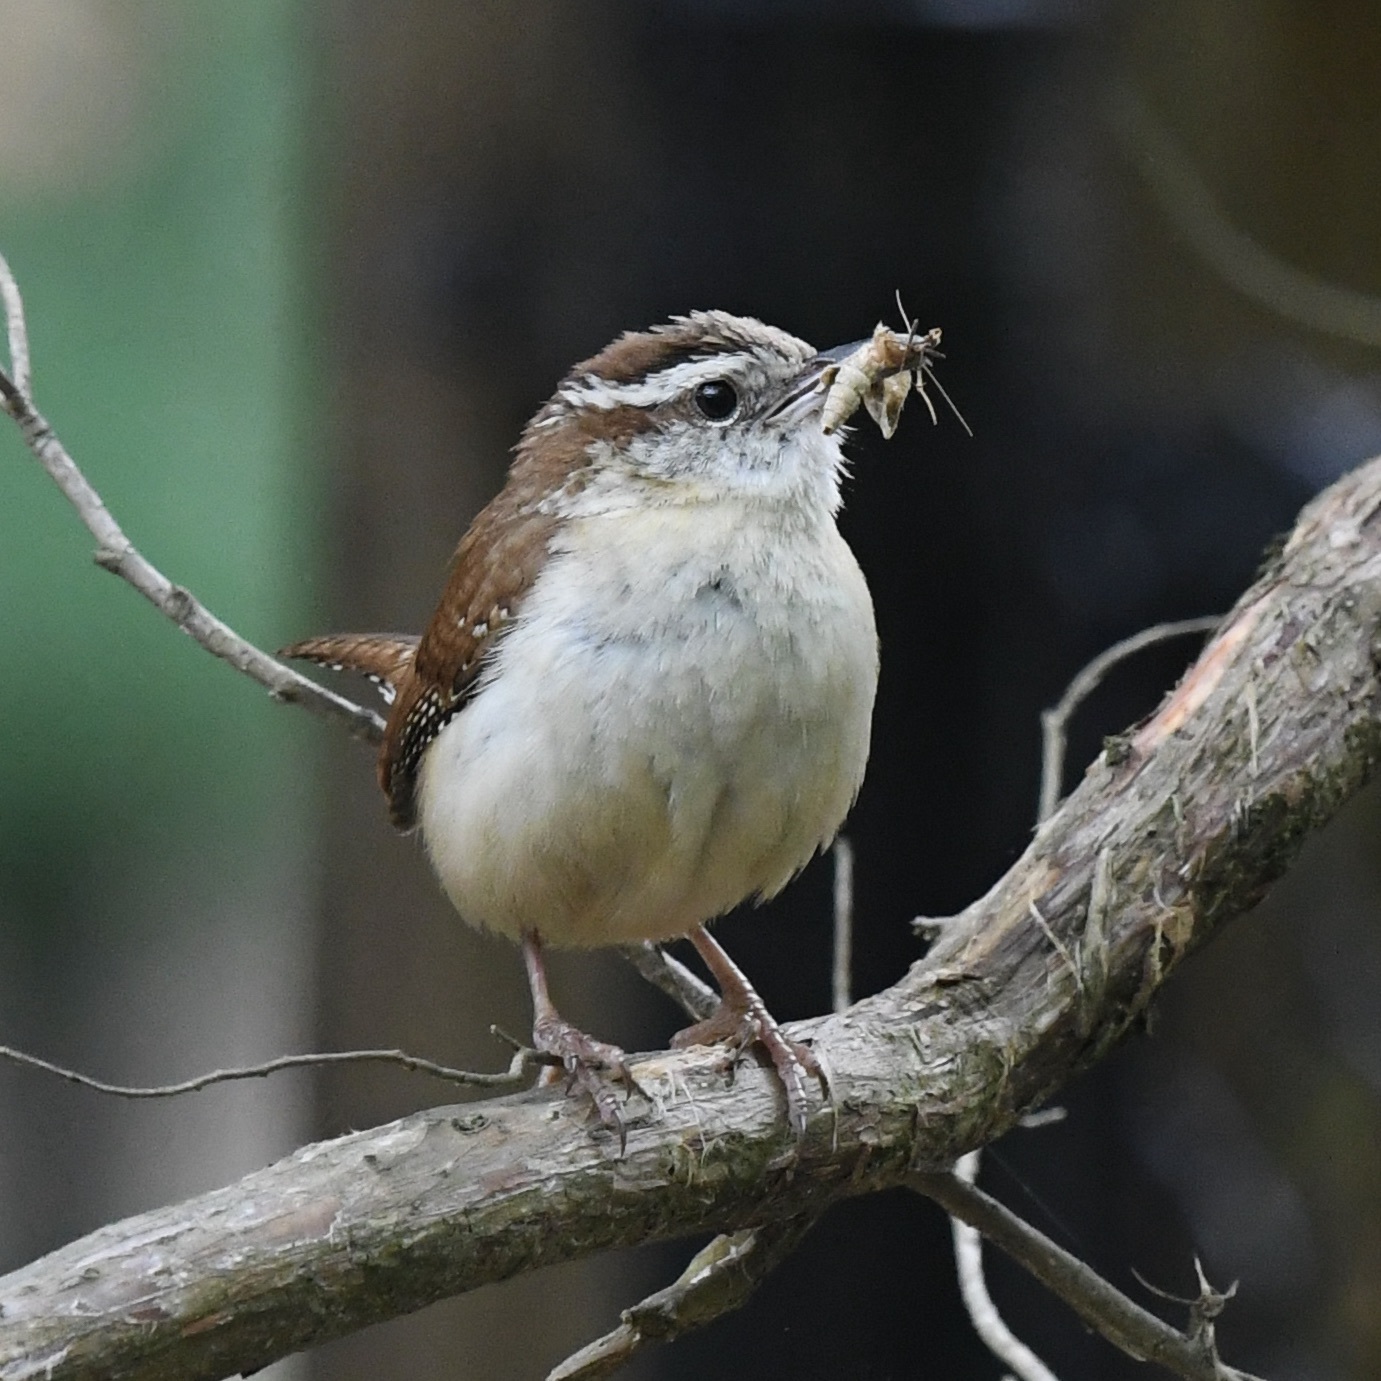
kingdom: Animalia
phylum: Chordata
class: Aves
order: Passeriformes
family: Troglodytidae
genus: Thryothorus
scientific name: Thryothorus ludovicianus
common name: Carolina wren
